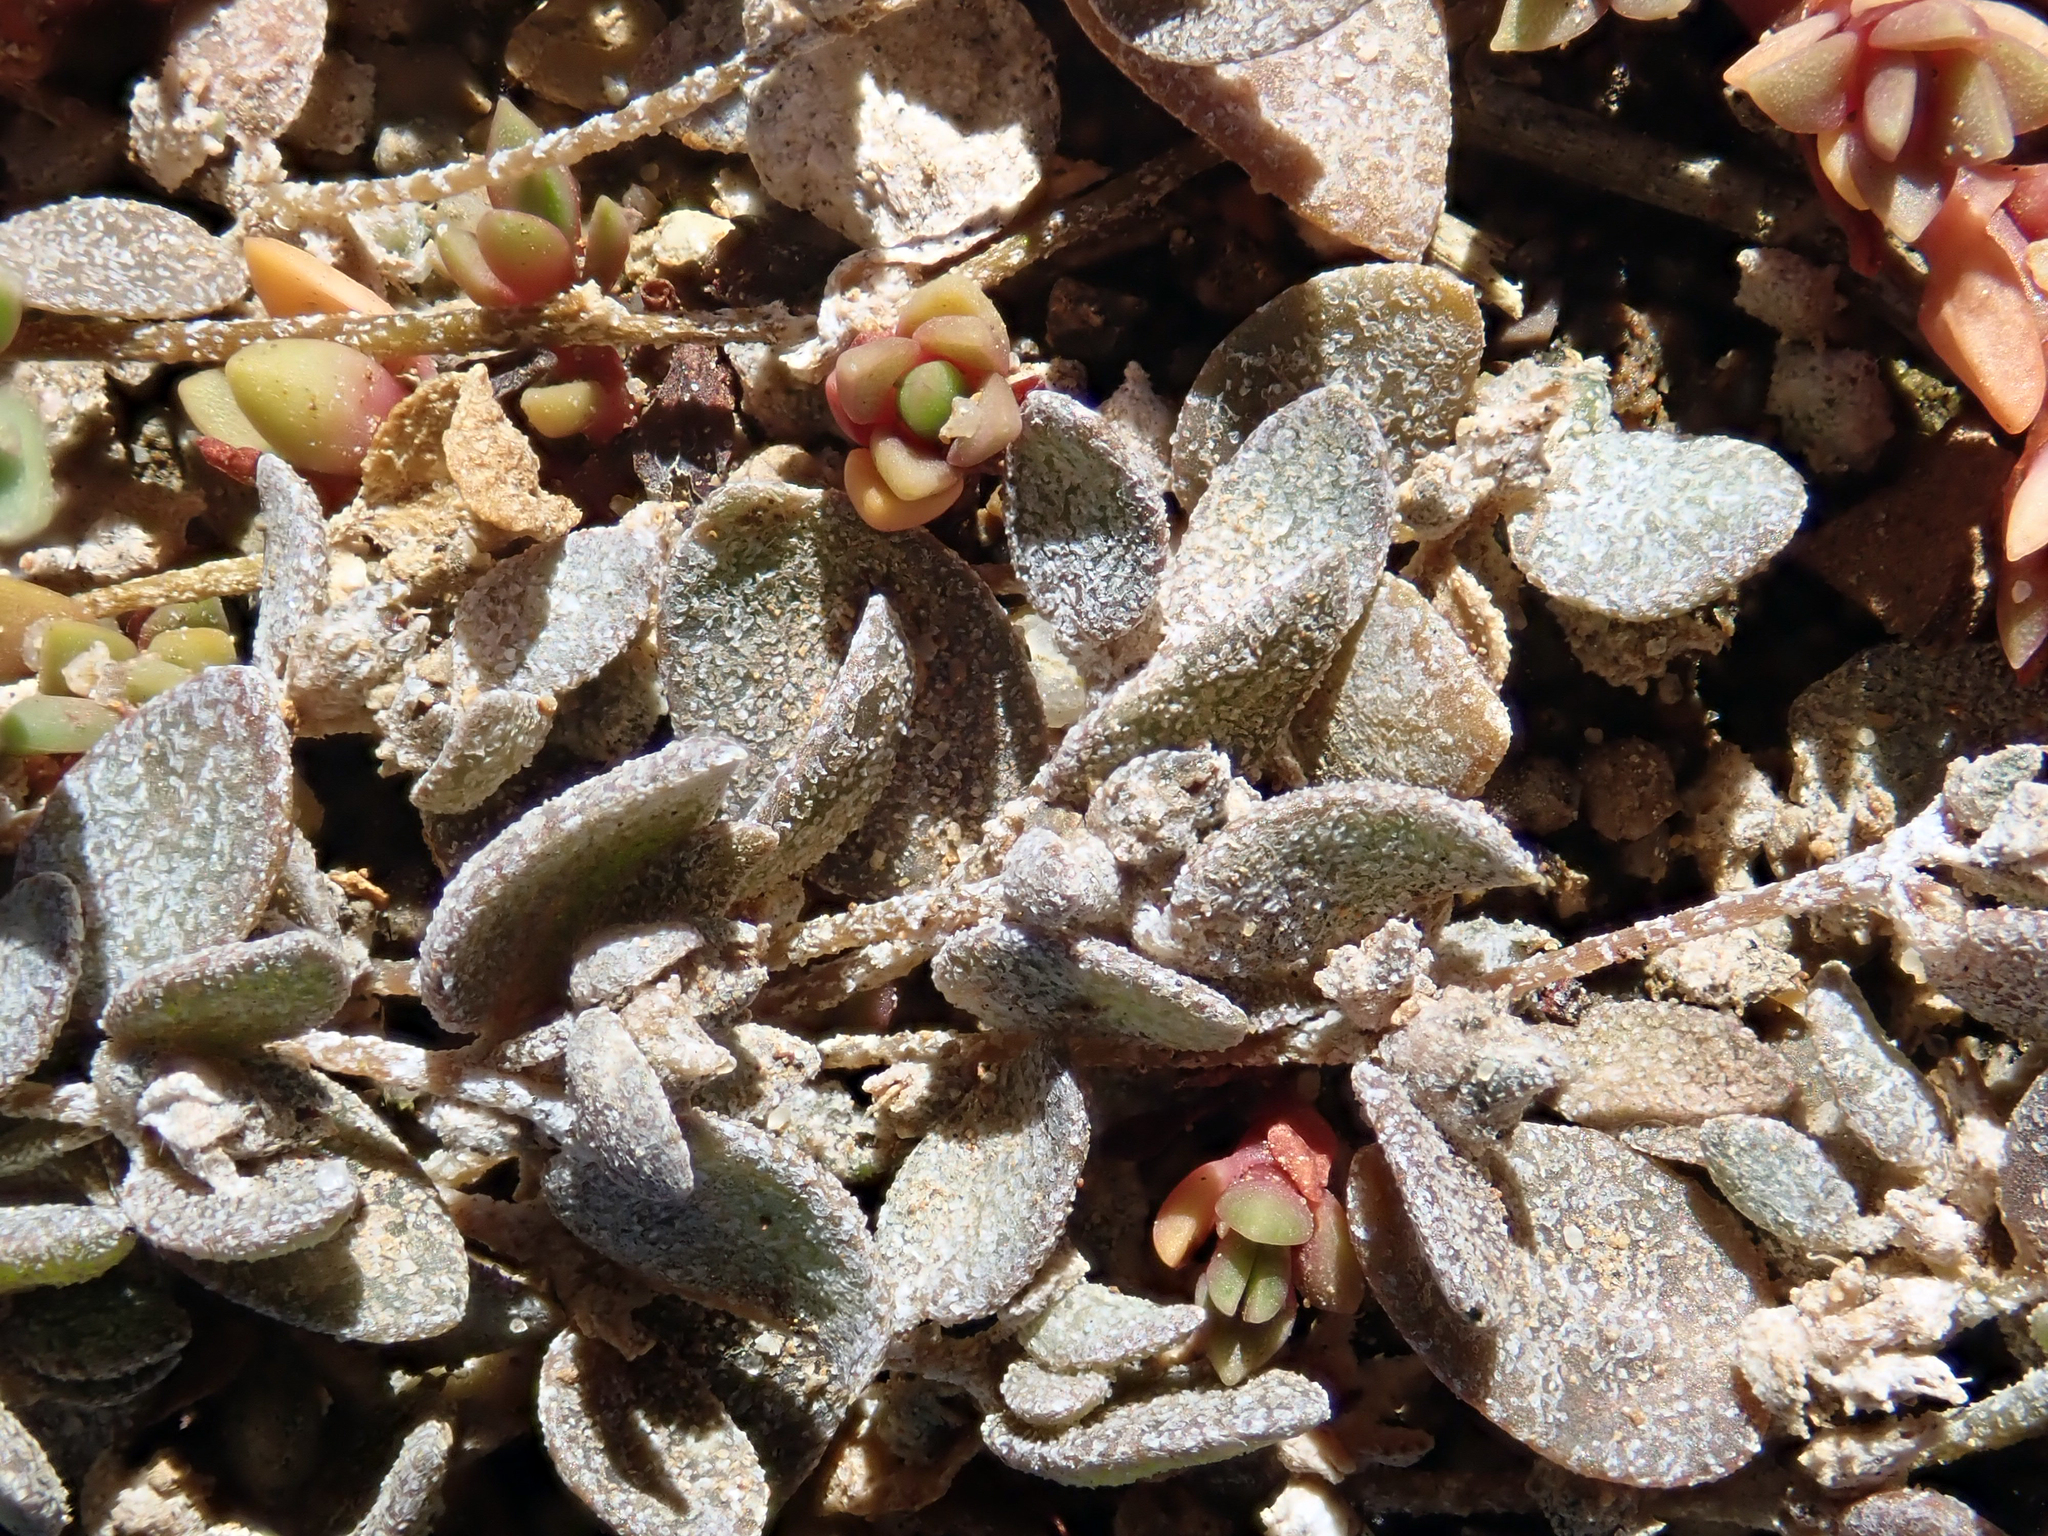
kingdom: Plantae
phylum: Tracheophyta
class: Magnoliopsida
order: Caryophyllales
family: Amaranthaceae
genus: Atriplex
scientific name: Atriplex buchananii
